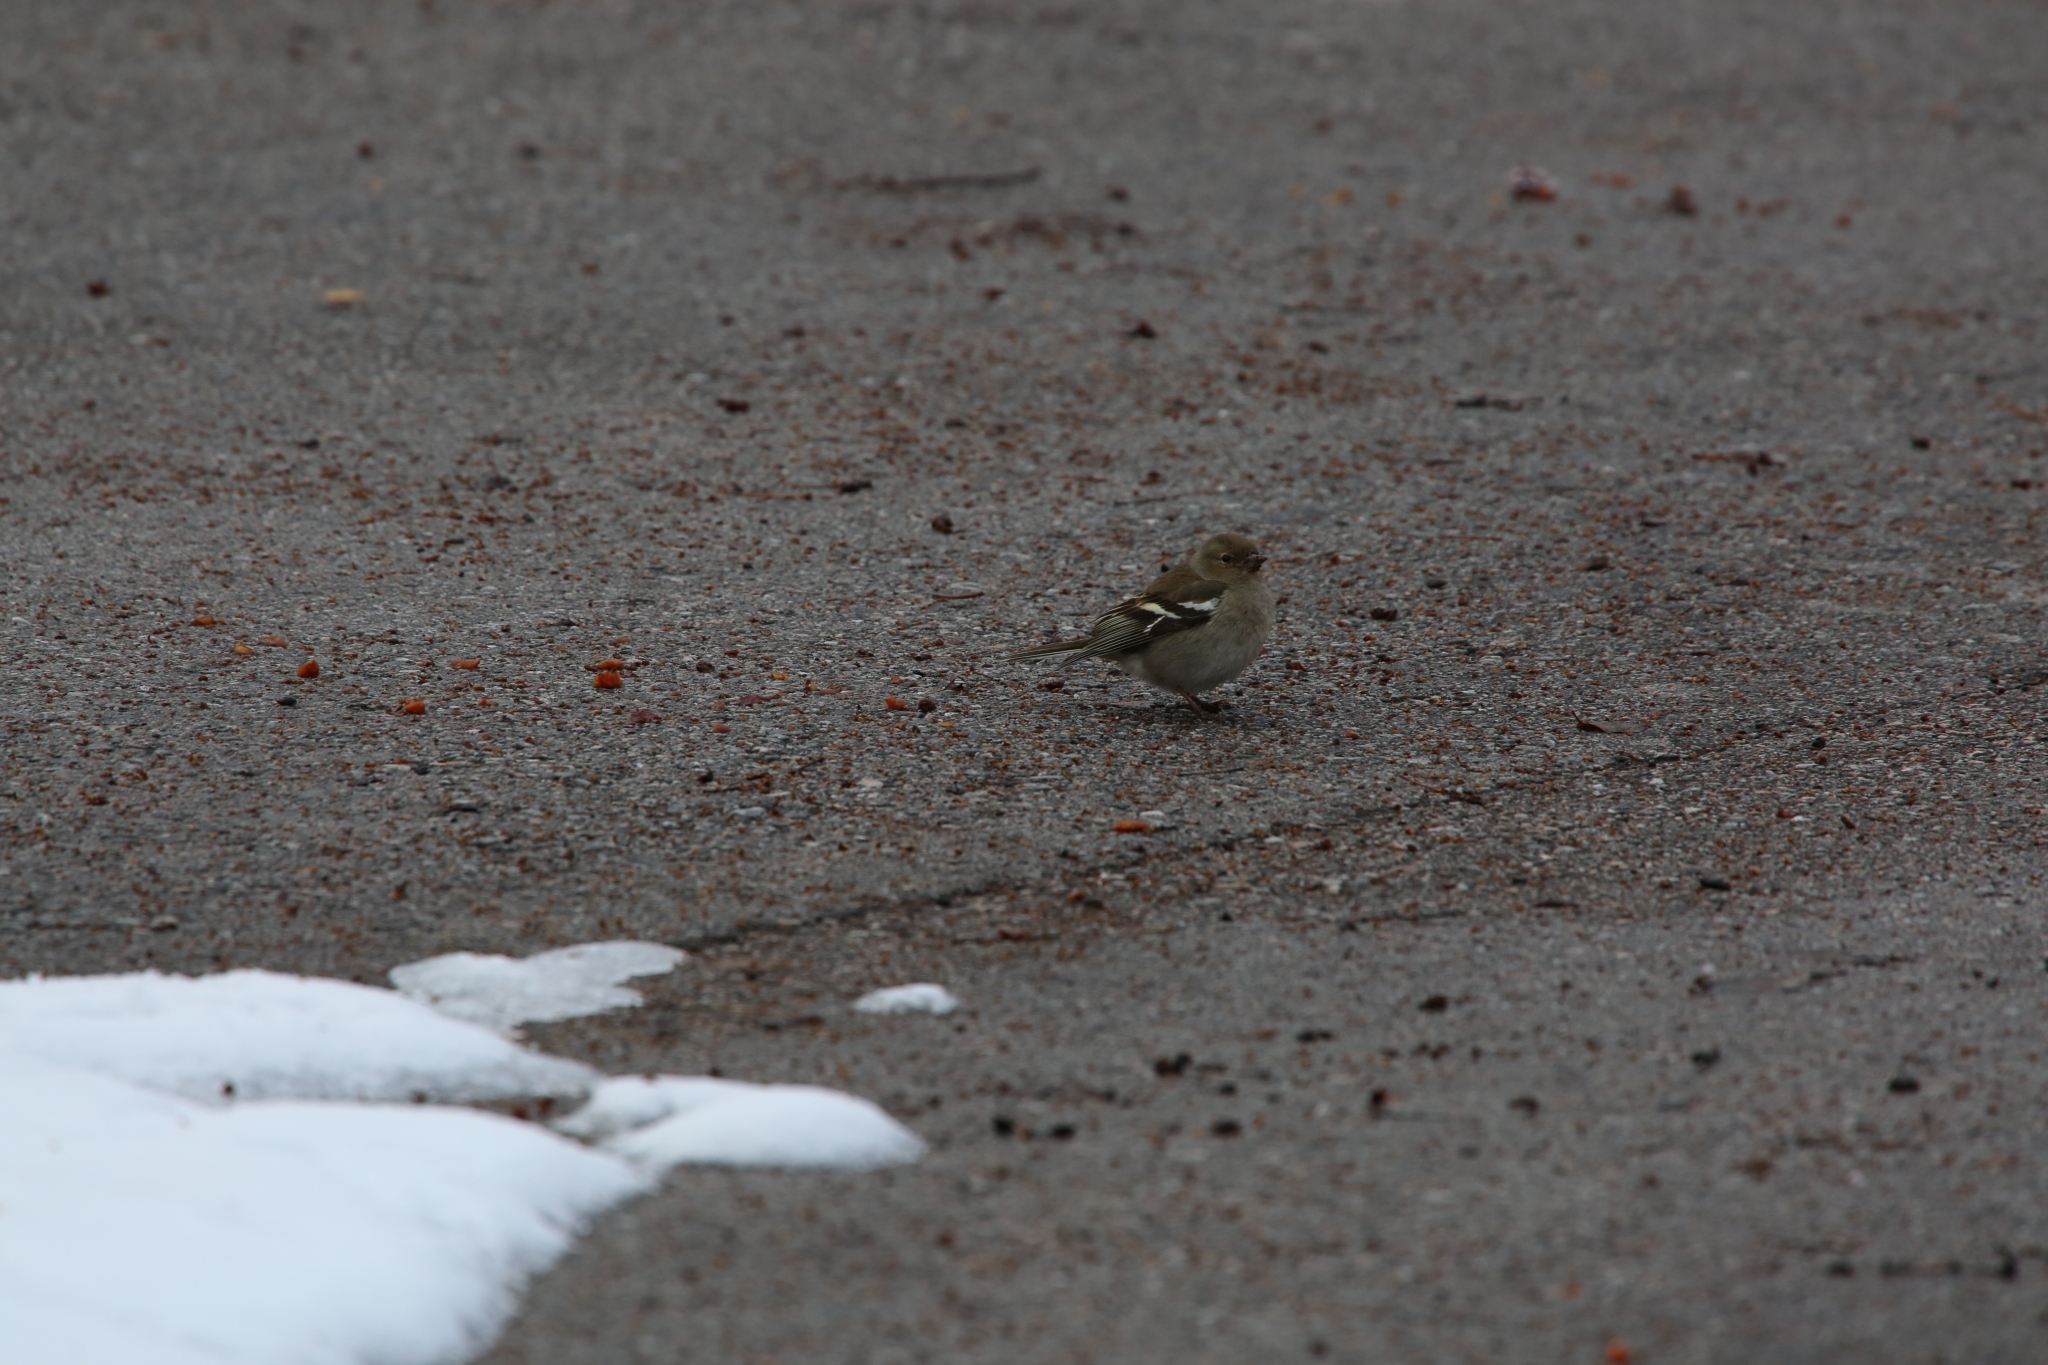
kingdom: Animalia
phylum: Chordata
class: Aves
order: Passeriformes
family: Fringillidae
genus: Fringilla
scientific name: Fringilla coelebs
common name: Common chaffinch
